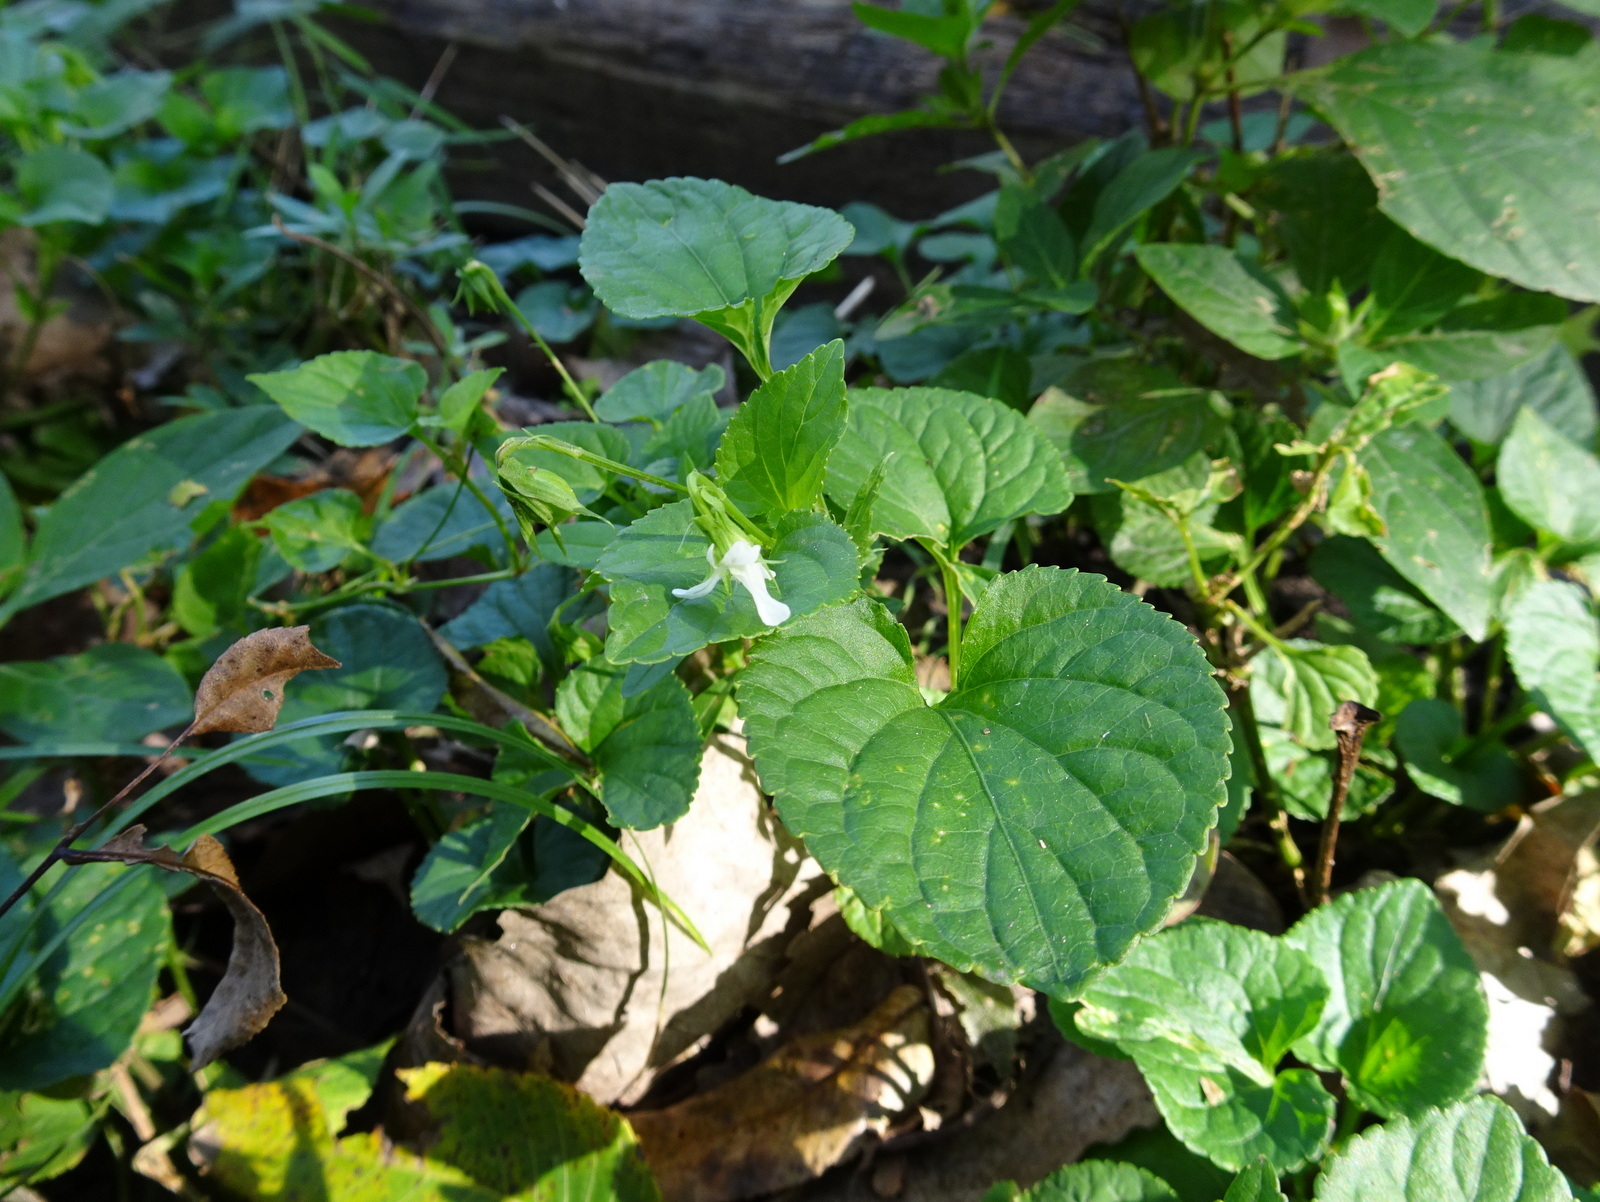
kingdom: Plantae
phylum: Tracheophyta
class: Magnoliopsida
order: Malpighiales
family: Violaceae
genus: Viola
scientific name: Viola striata
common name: Cream violet
